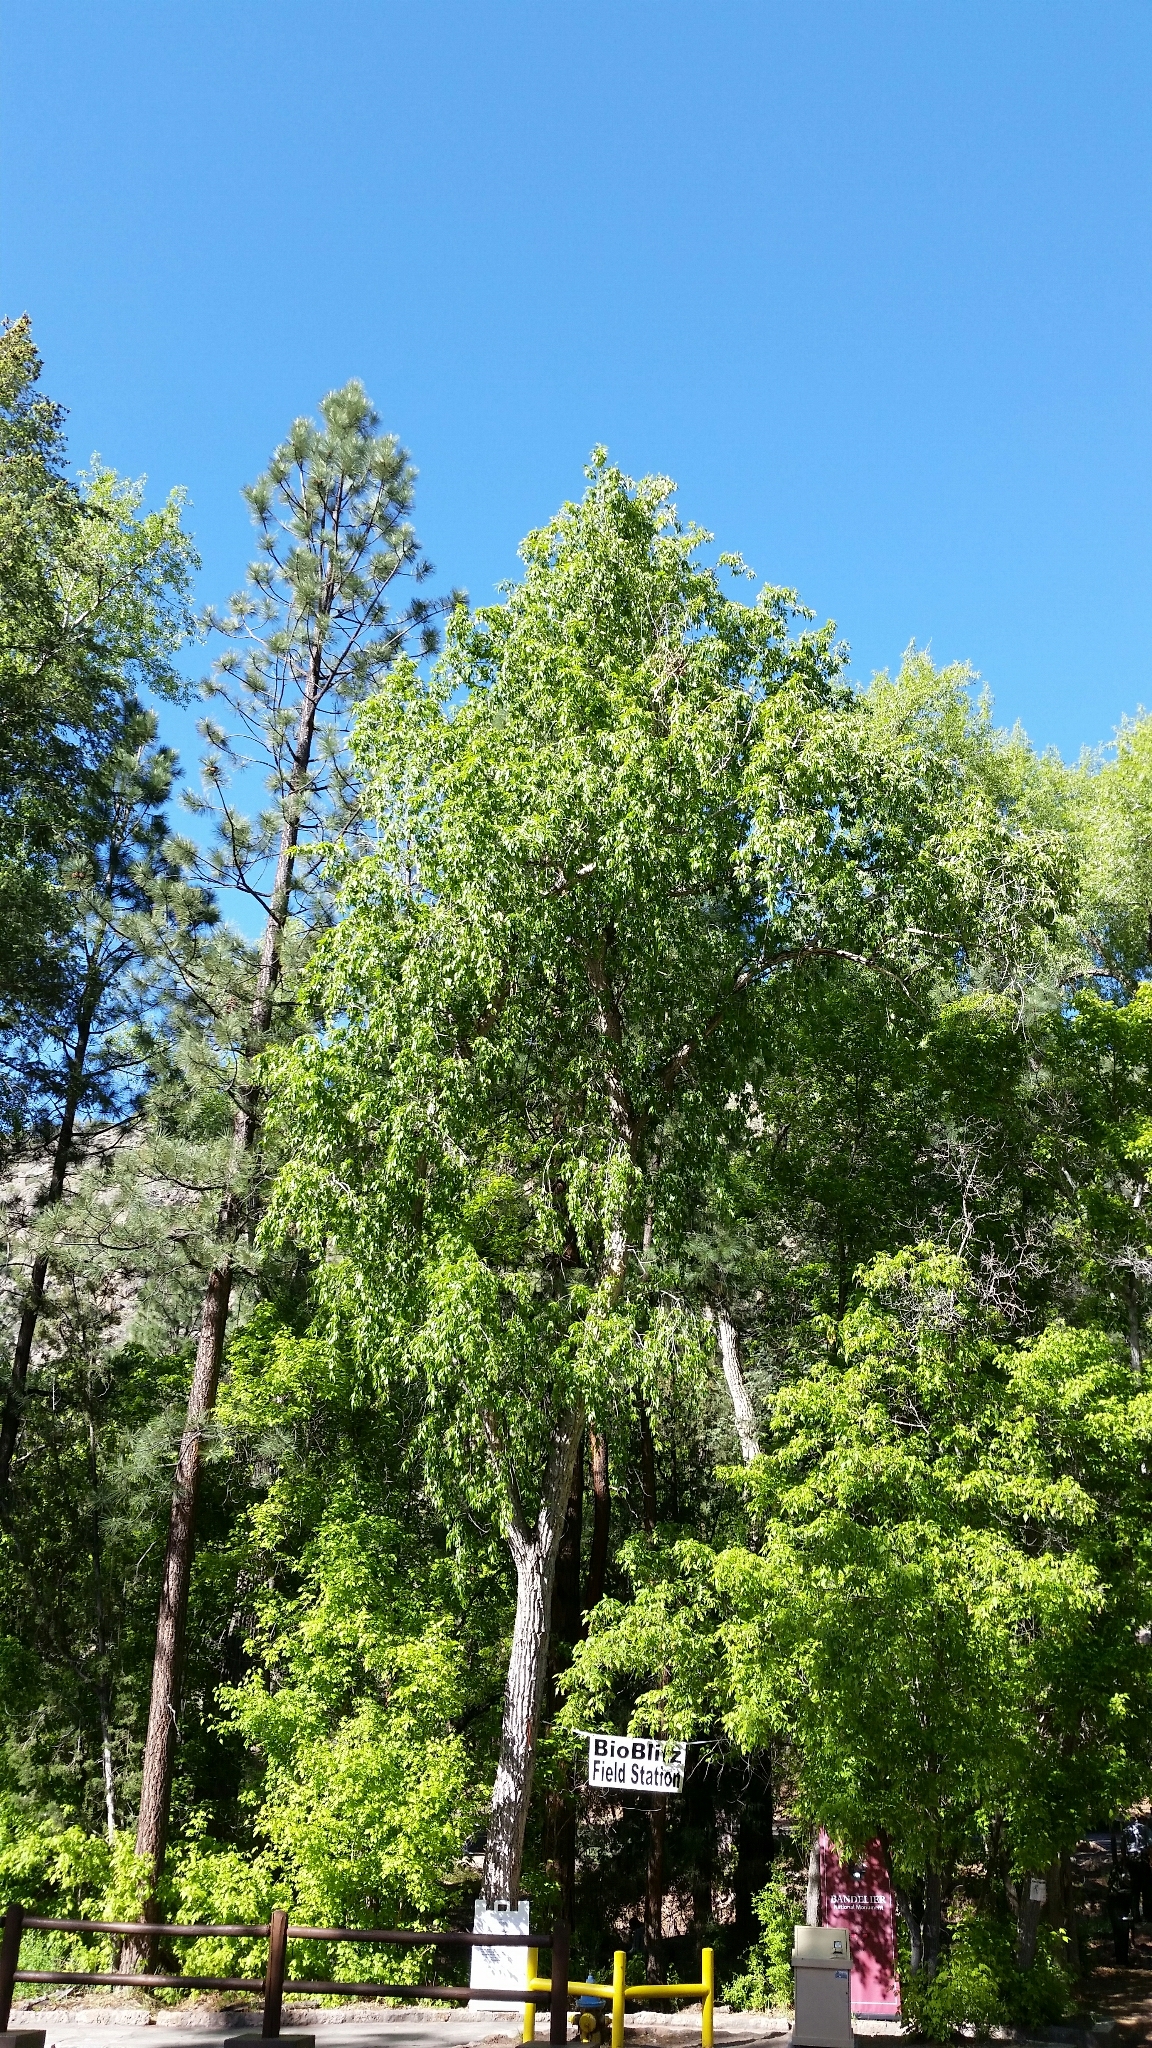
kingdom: Plantae
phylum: Tracheophyta
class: Magnoliopsida
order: Malpighiales
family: Salicaceae
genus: Populus
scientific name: Populus angustifolia
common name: Willow cottonwood
